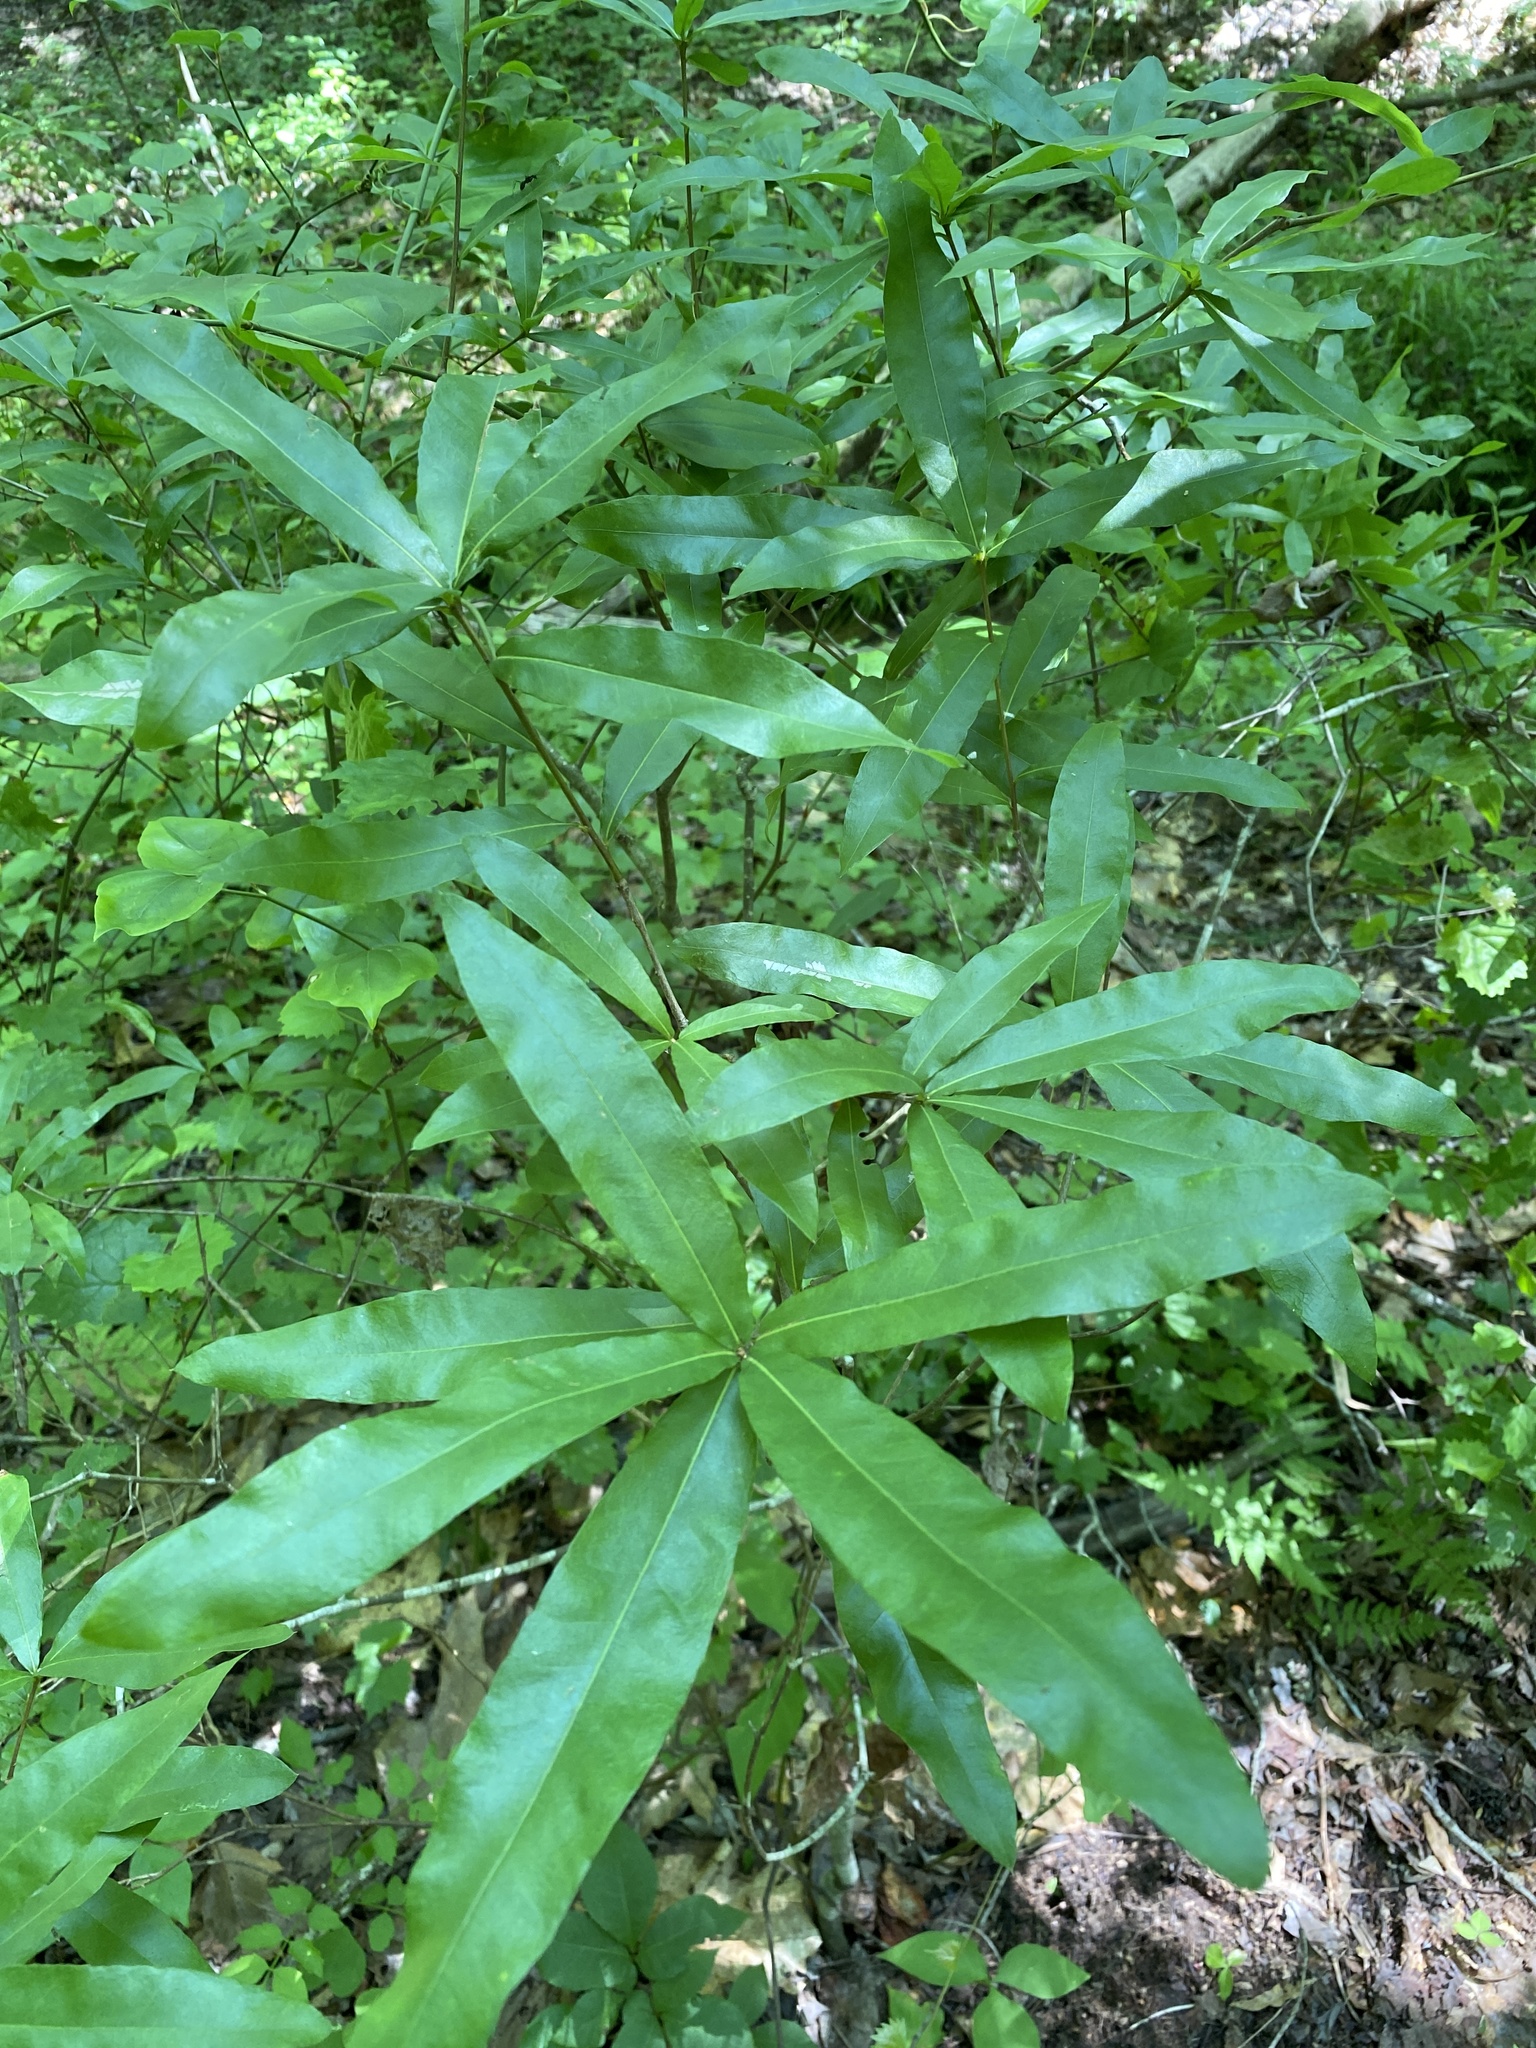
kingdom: Plantae
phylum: Tracheophyta
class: Magnoliopsida
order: Fagales
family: Fagaceae
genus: Quercus
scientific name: Quercus phellos
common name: Willow oak
